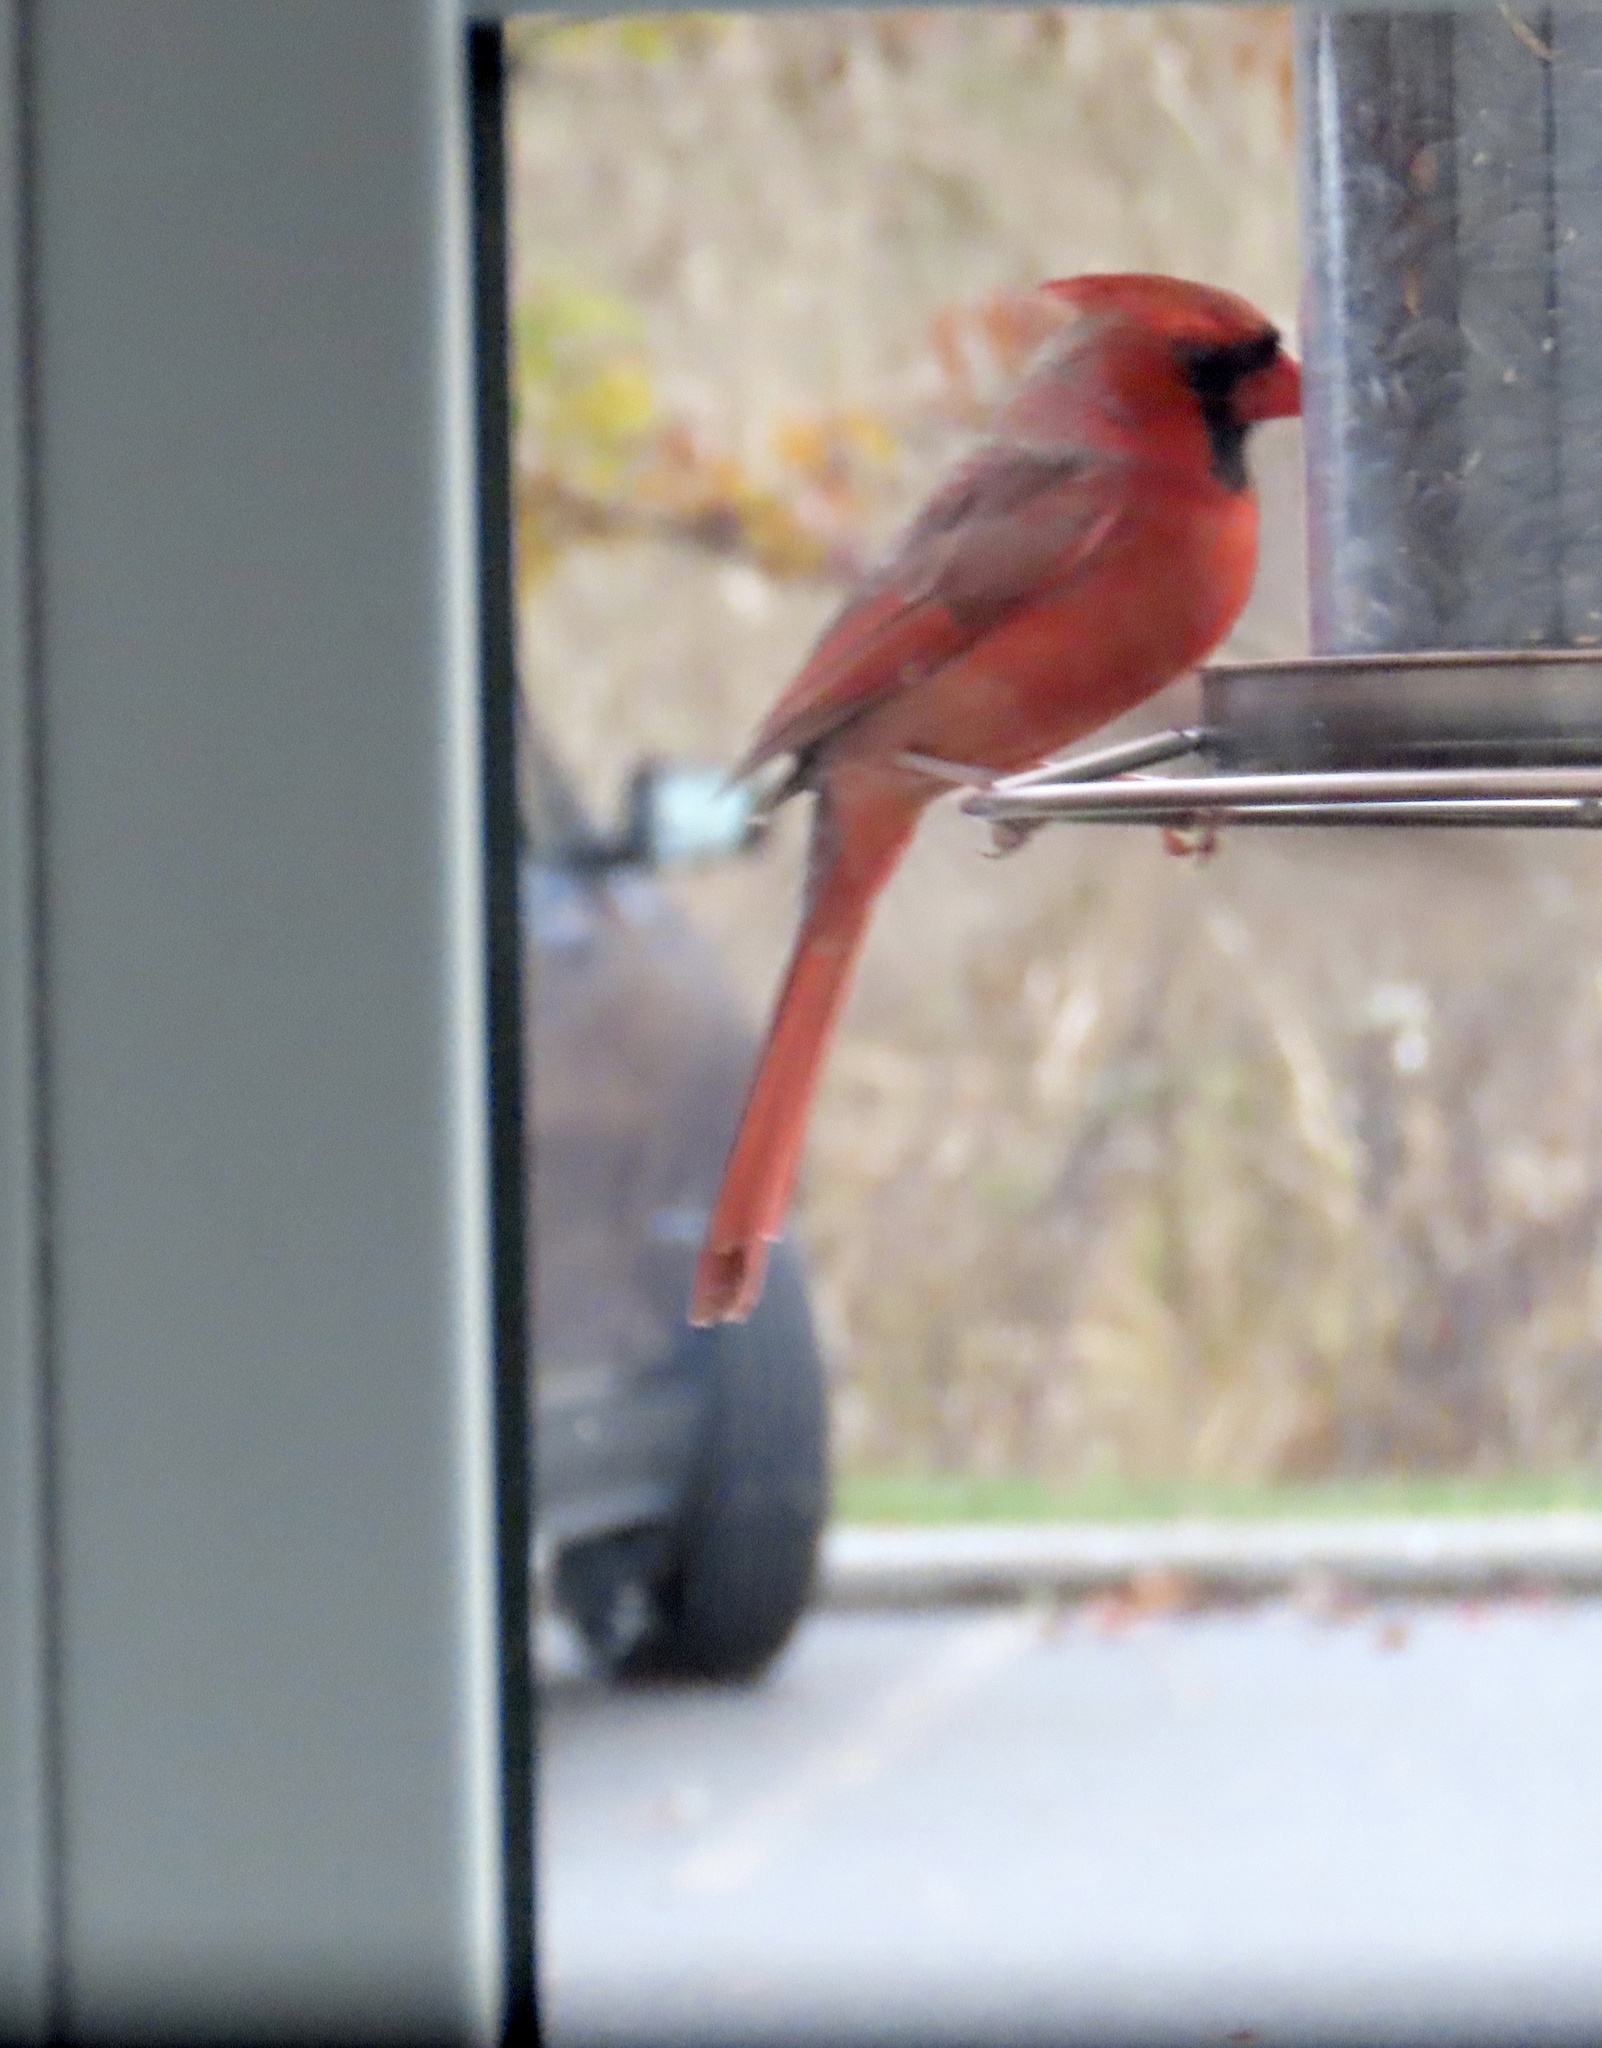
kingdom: Animalia
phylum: Chordata
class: Aves
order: Passeriformes
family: Cardinalidae
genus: Cardinalis
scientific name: Cardinalis cardinalis
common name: Northern cardinal
